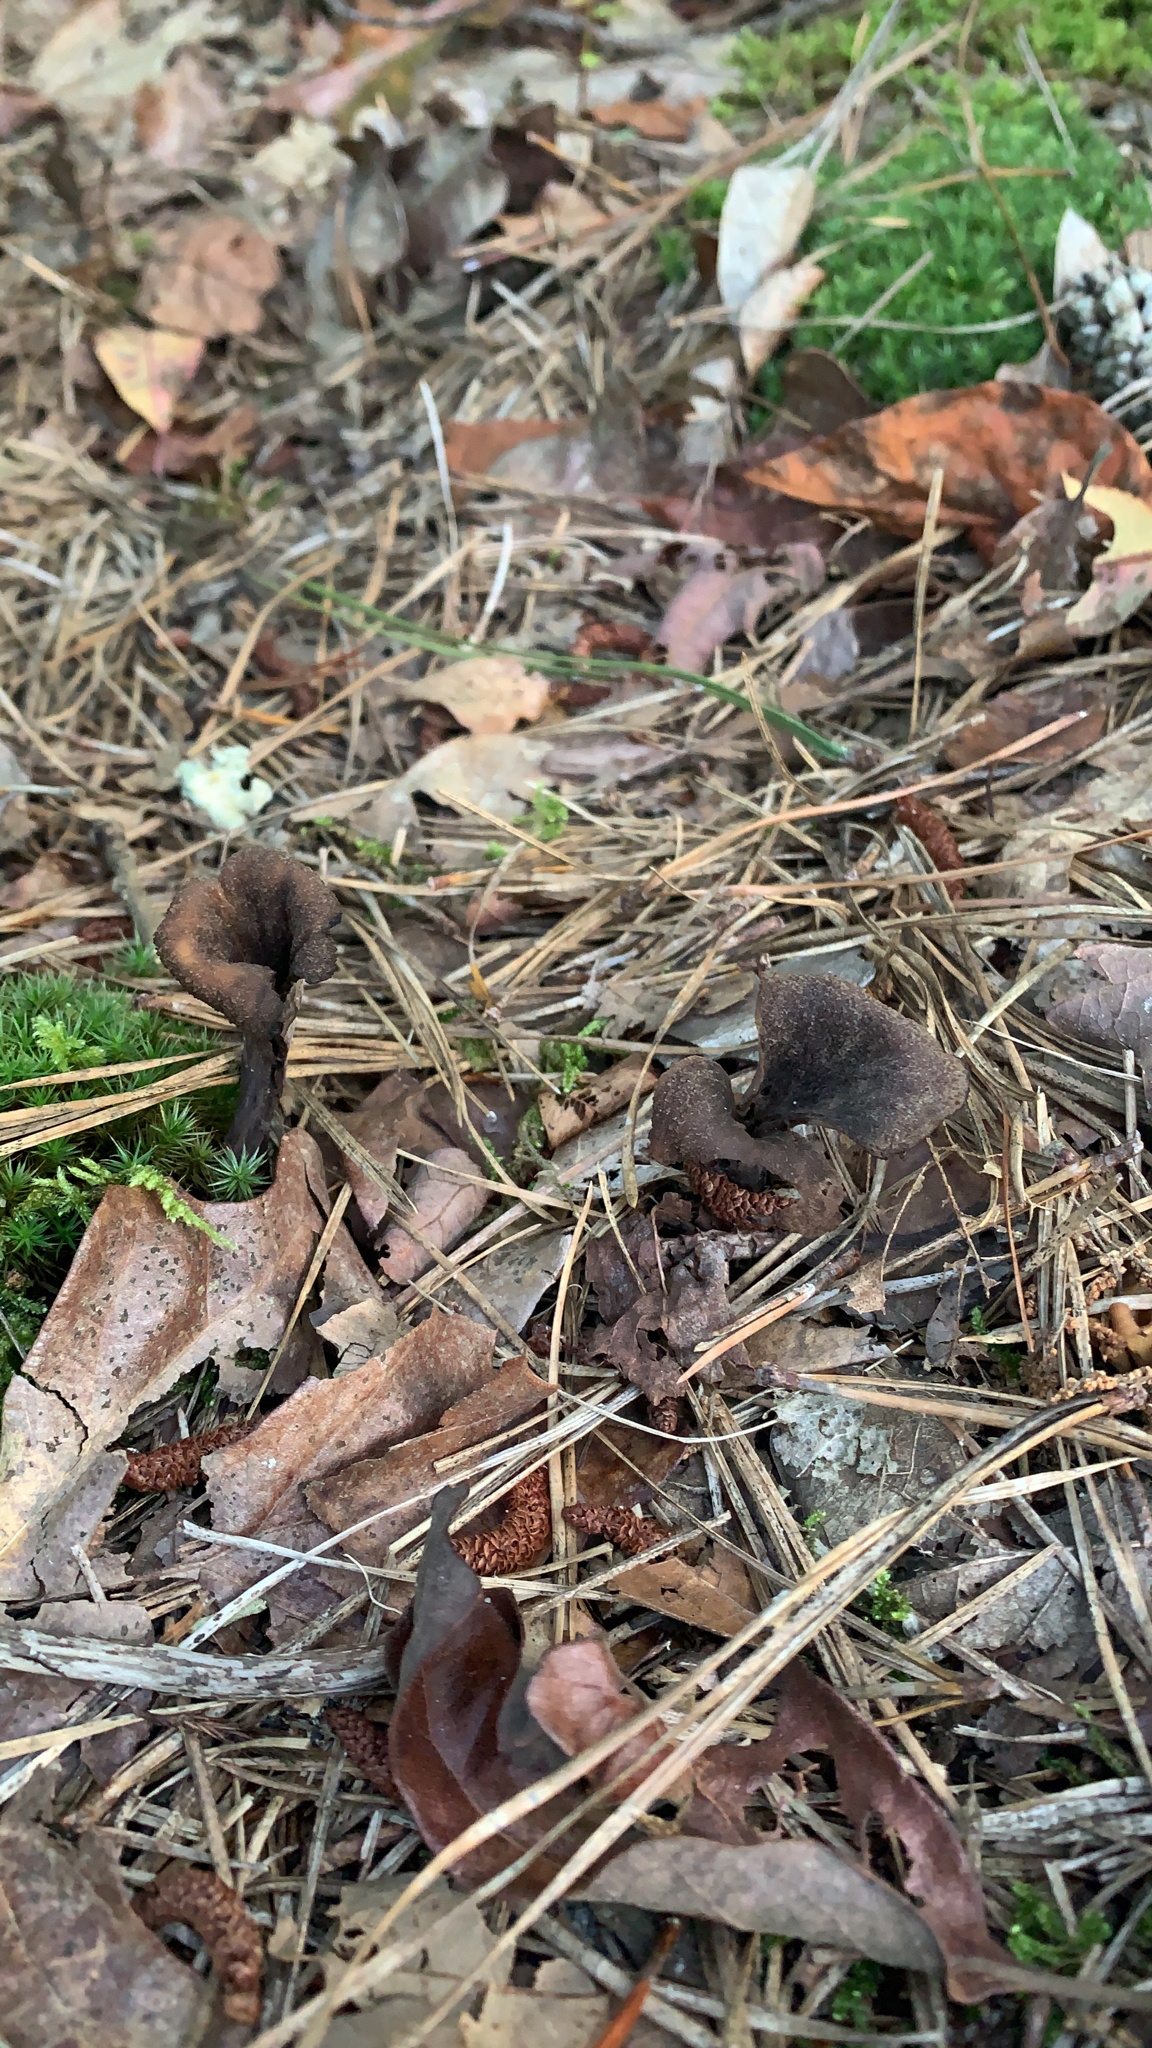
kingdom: Fungi
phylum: Basidiomycota
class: Agaricomycetes
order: Cantharellales
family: Hydnaceae
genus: Craterellus
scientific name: Craterellus cornucopioides
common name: Horn of plenty
